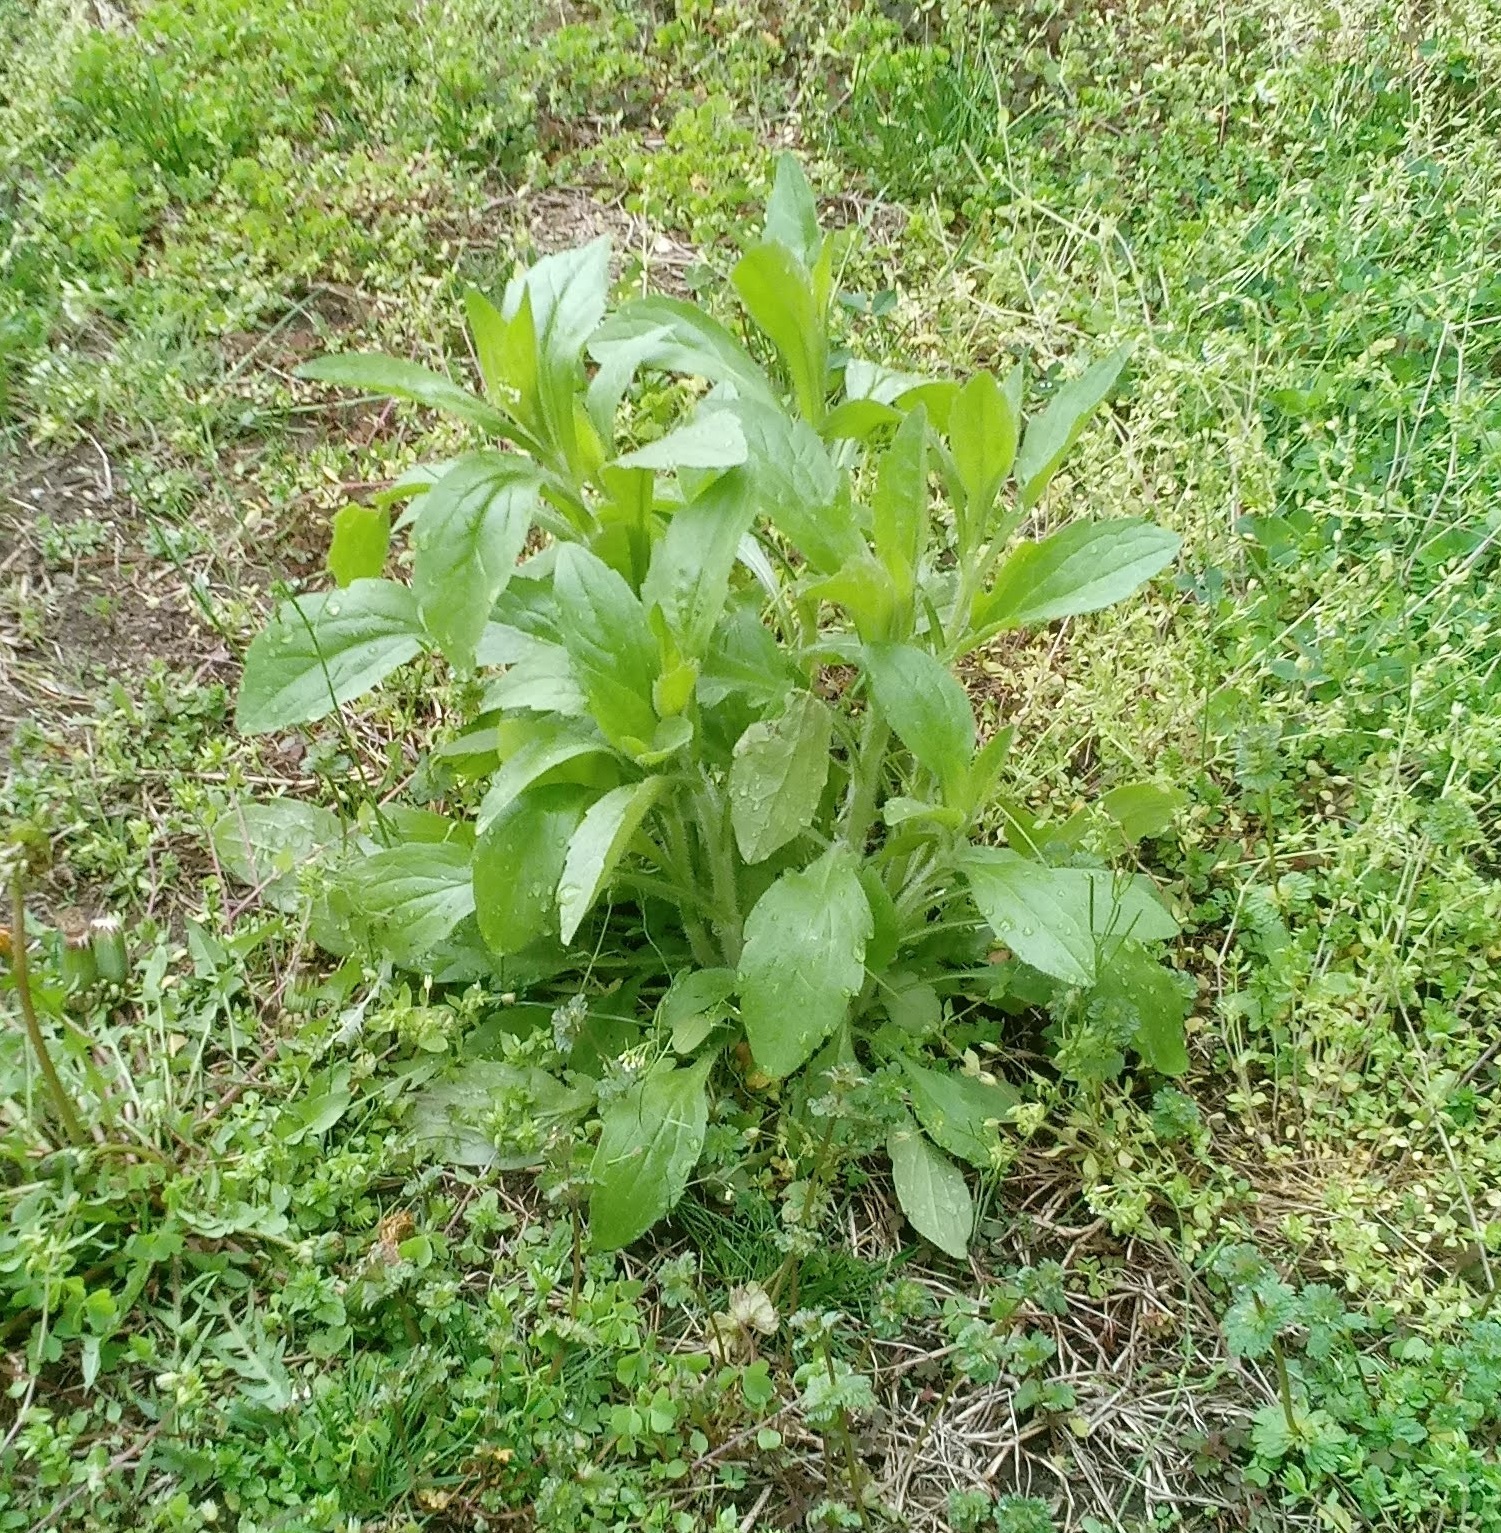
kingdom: Plantae
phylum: Tracheophyta
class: Magnoliopsida
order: Asterales
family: Asteraceae
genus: Erigeron
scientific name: Erigeron canadensis
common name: Canadian fleabane
